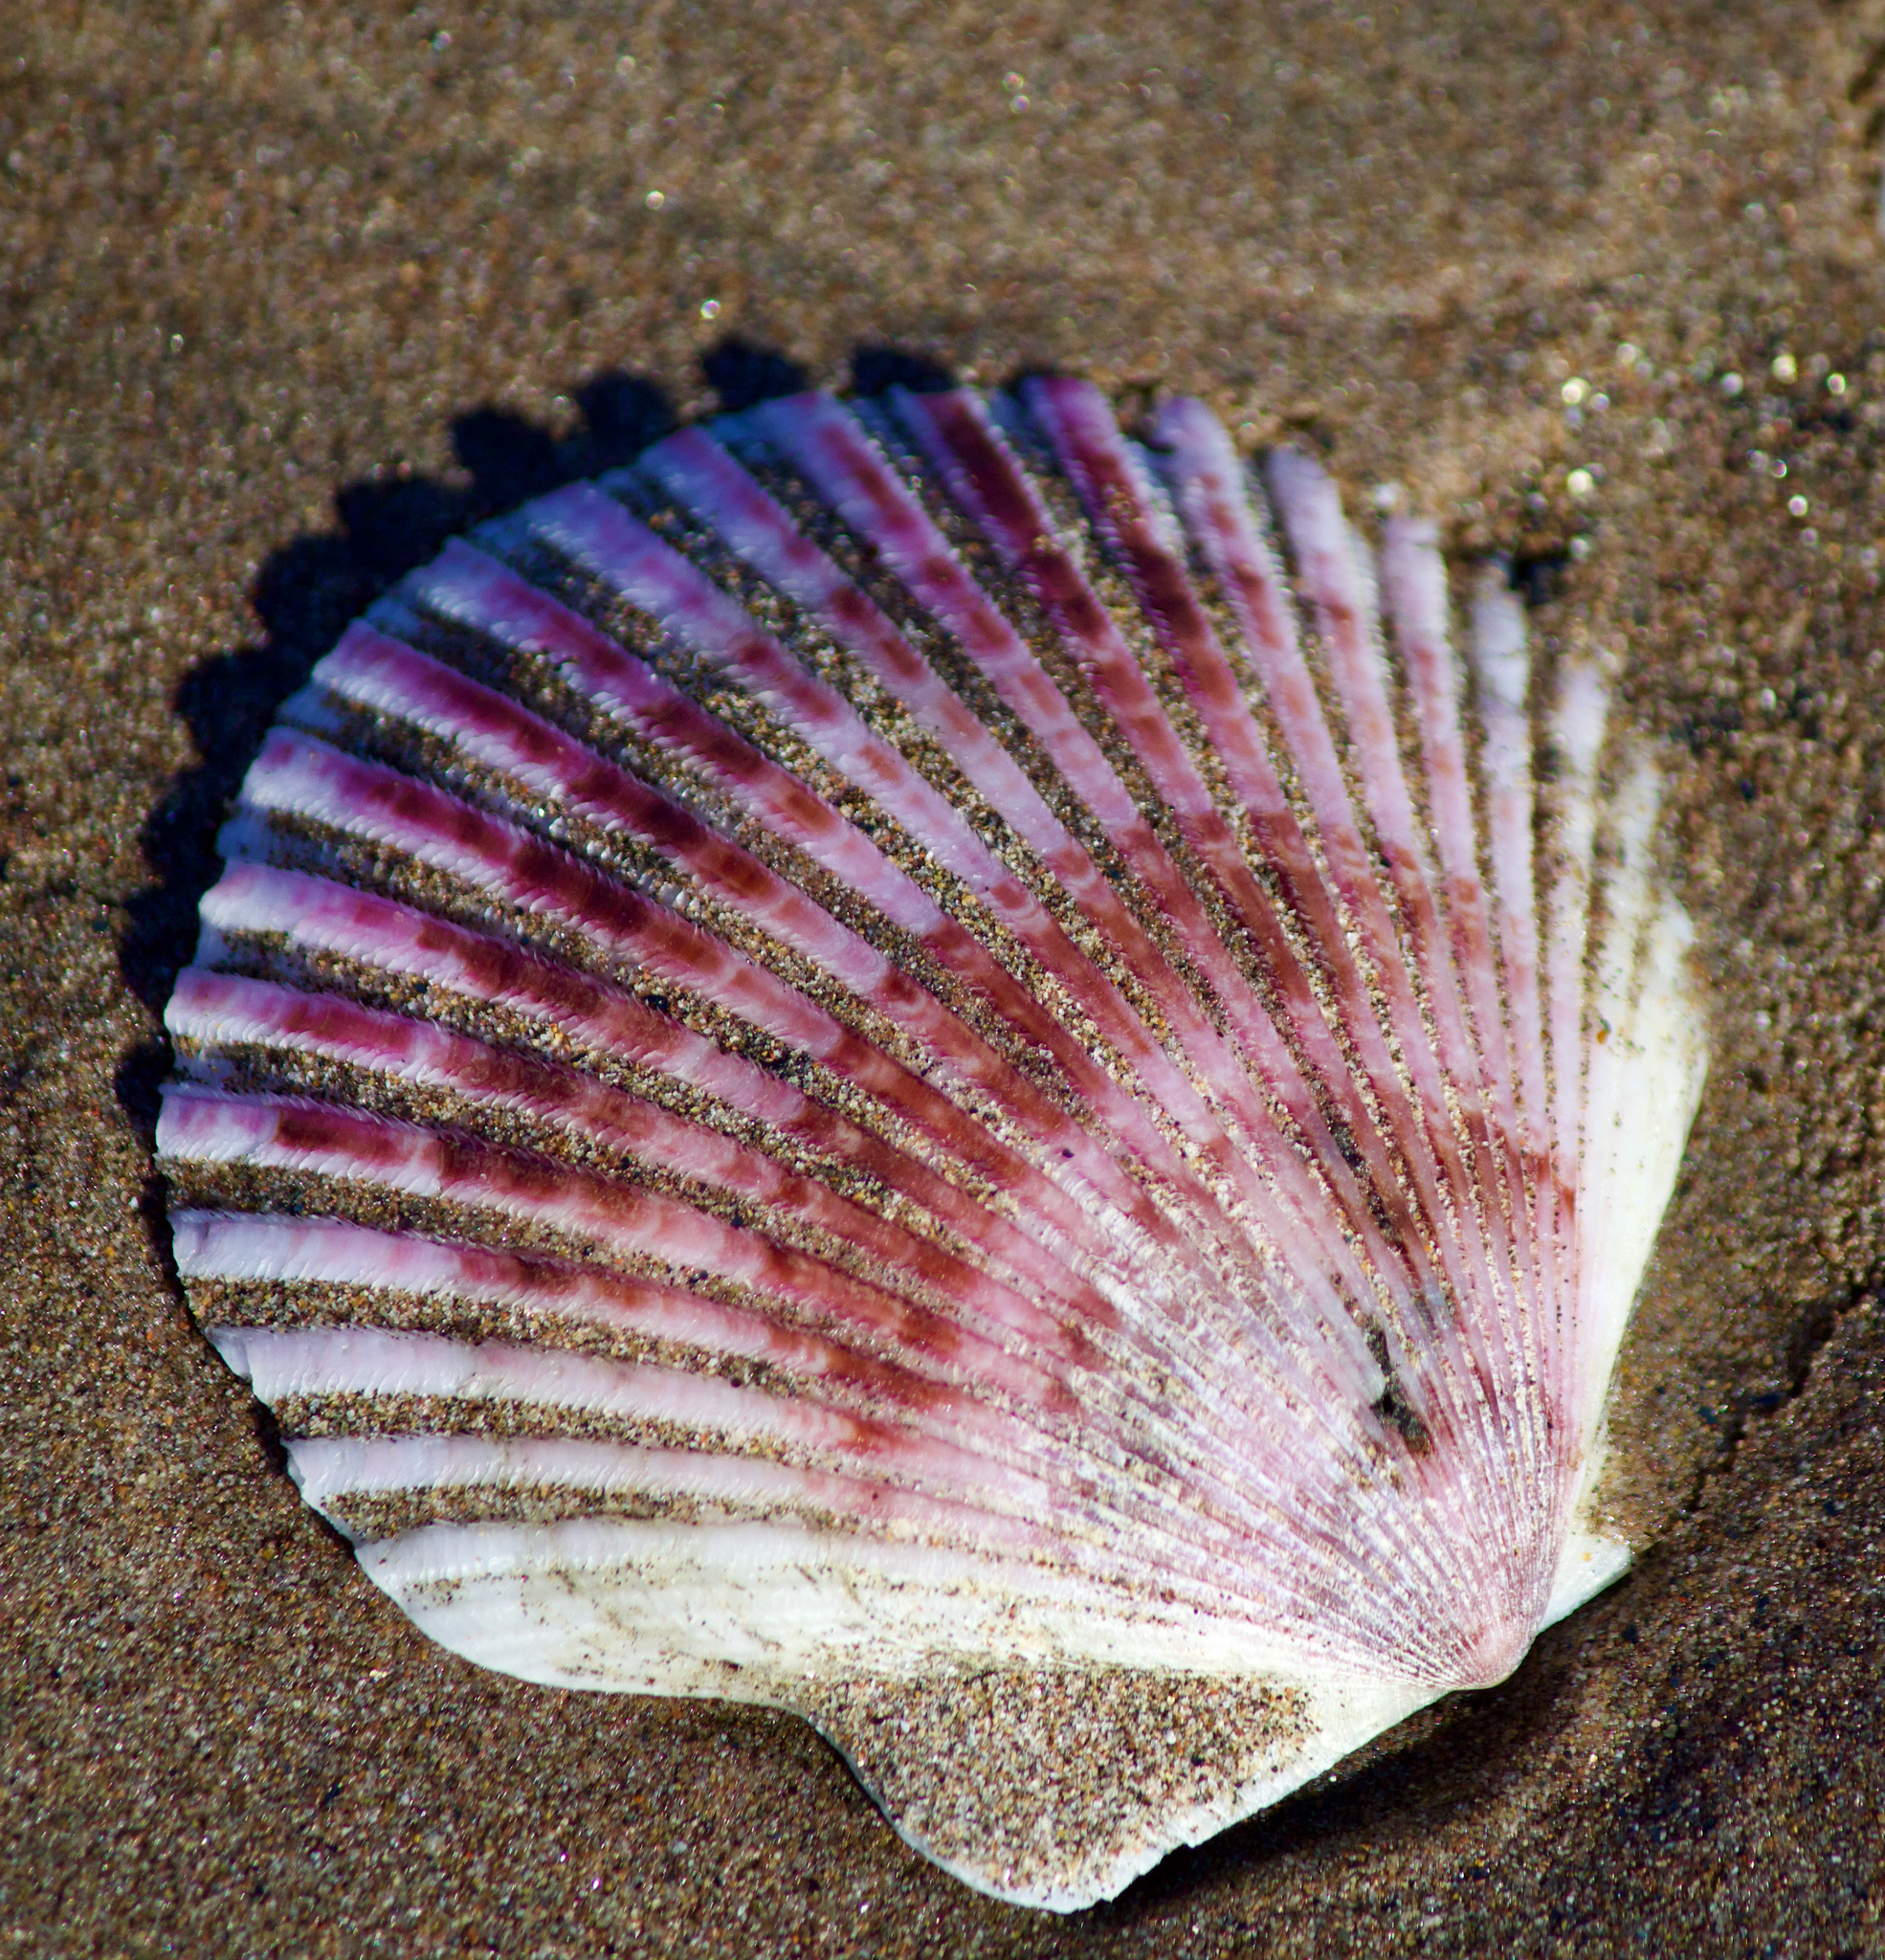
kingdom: Animalia
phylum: Mollusca
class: Bivalvia
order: Pectinida
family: Pectinidae
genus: Argopecten
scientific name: Argopecten purpuratus
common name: Peruvian scallop
